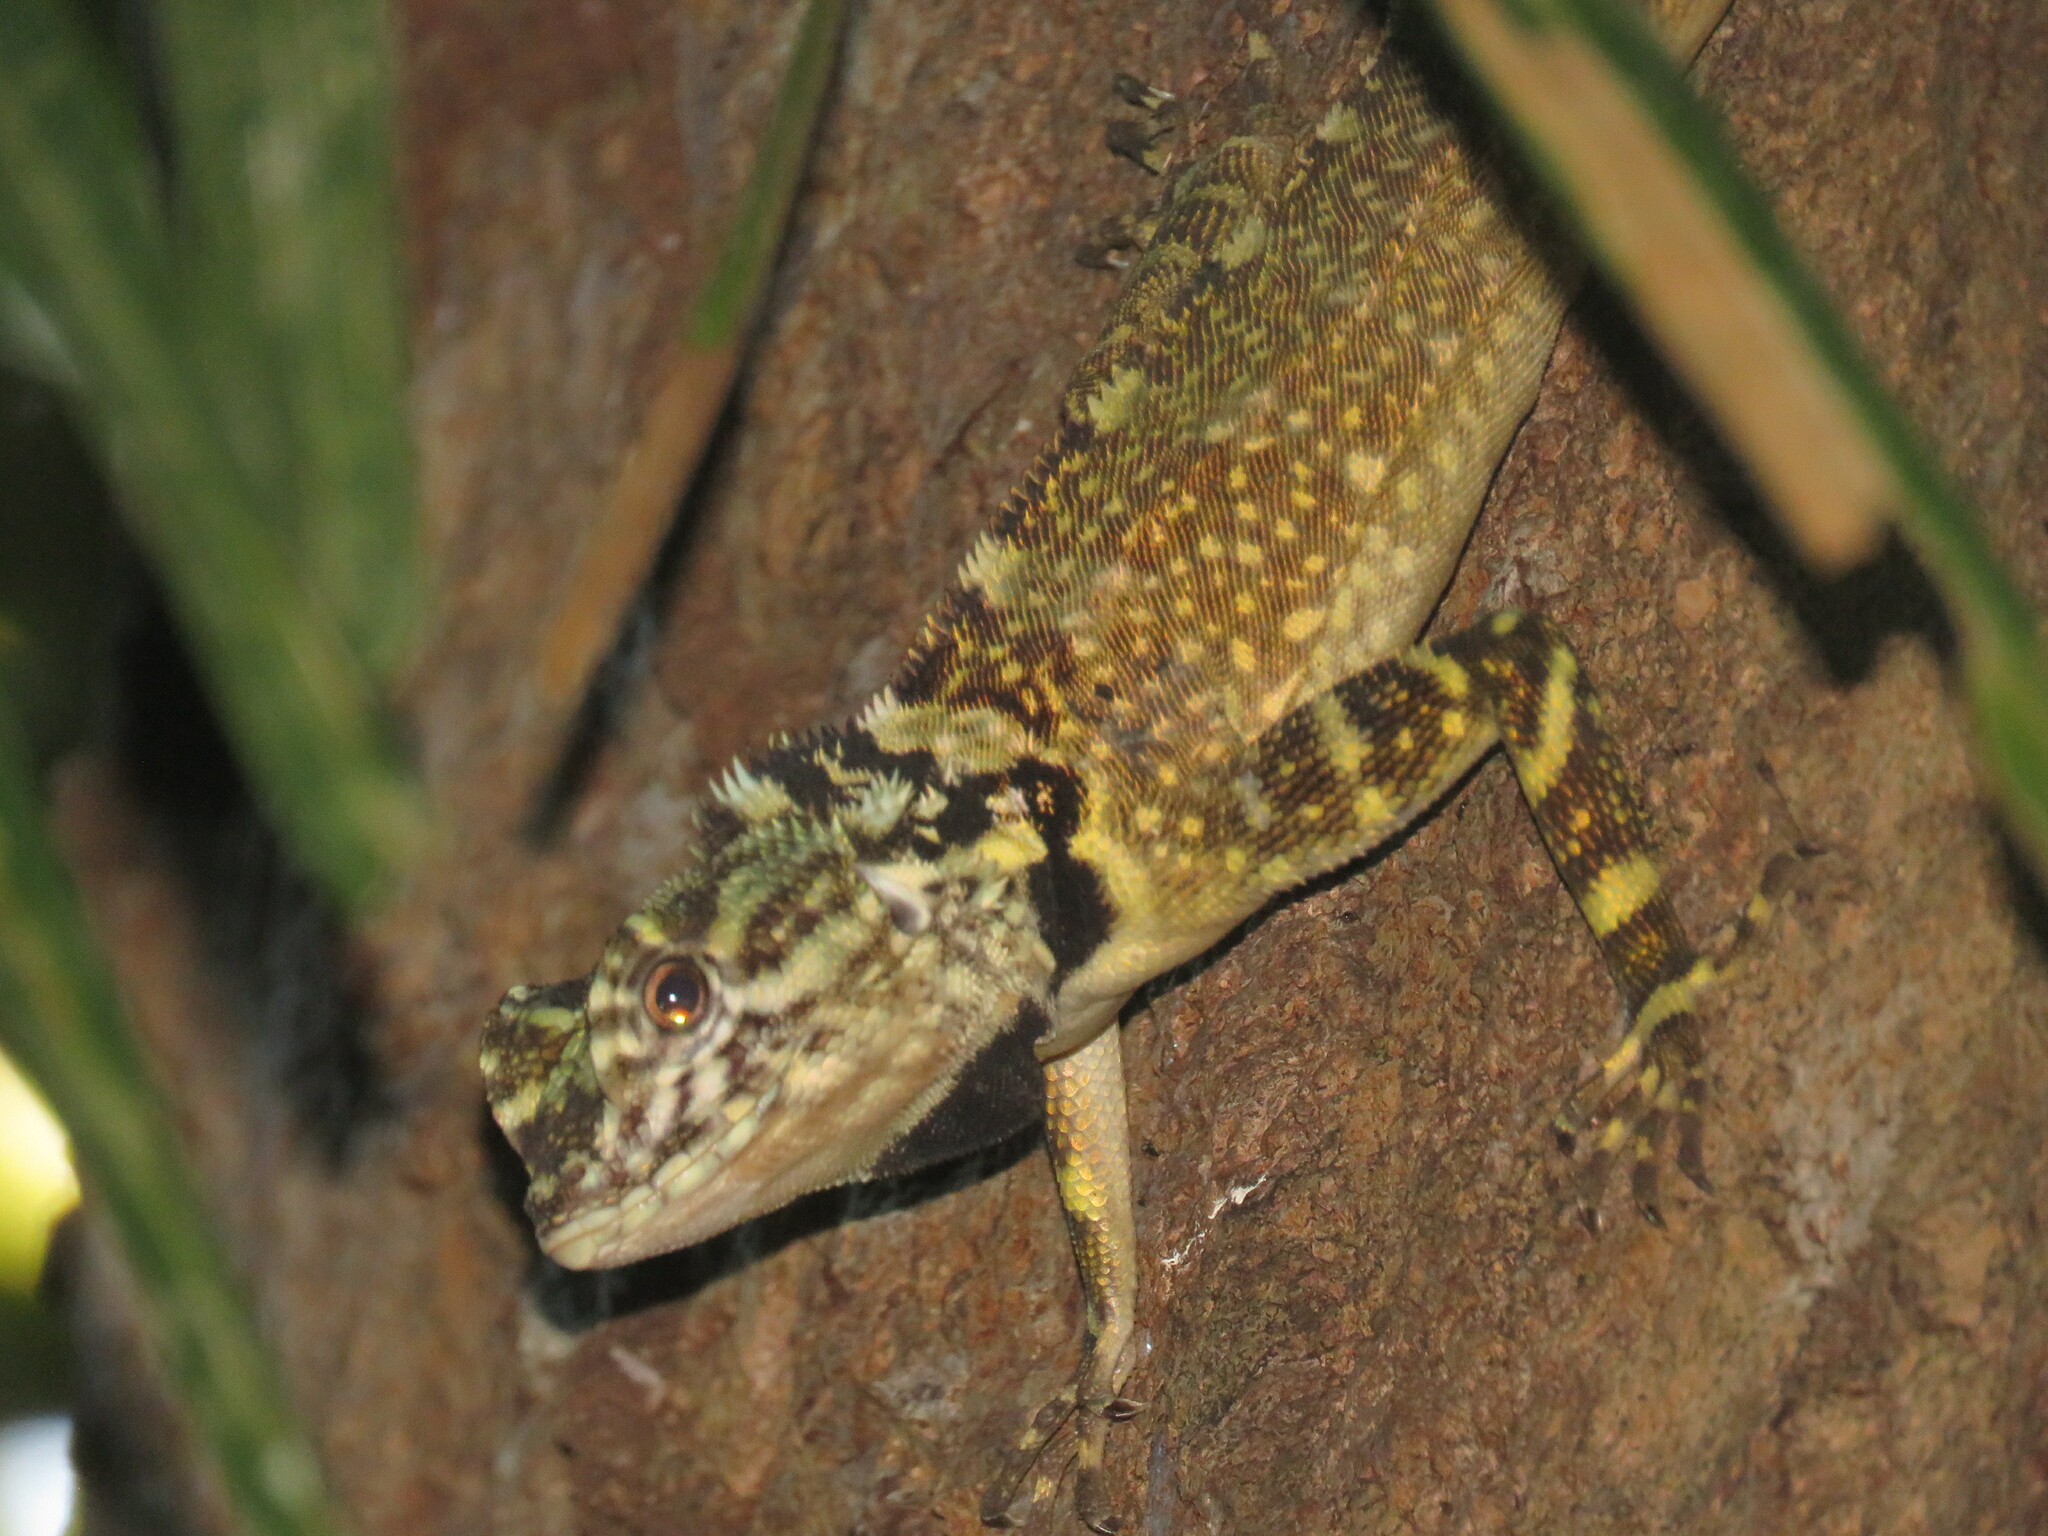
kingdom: Animalia
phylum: Chordata
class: Squamata
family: Tropiduridae
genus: Plica
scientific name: Plica plica
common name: Tree runner
